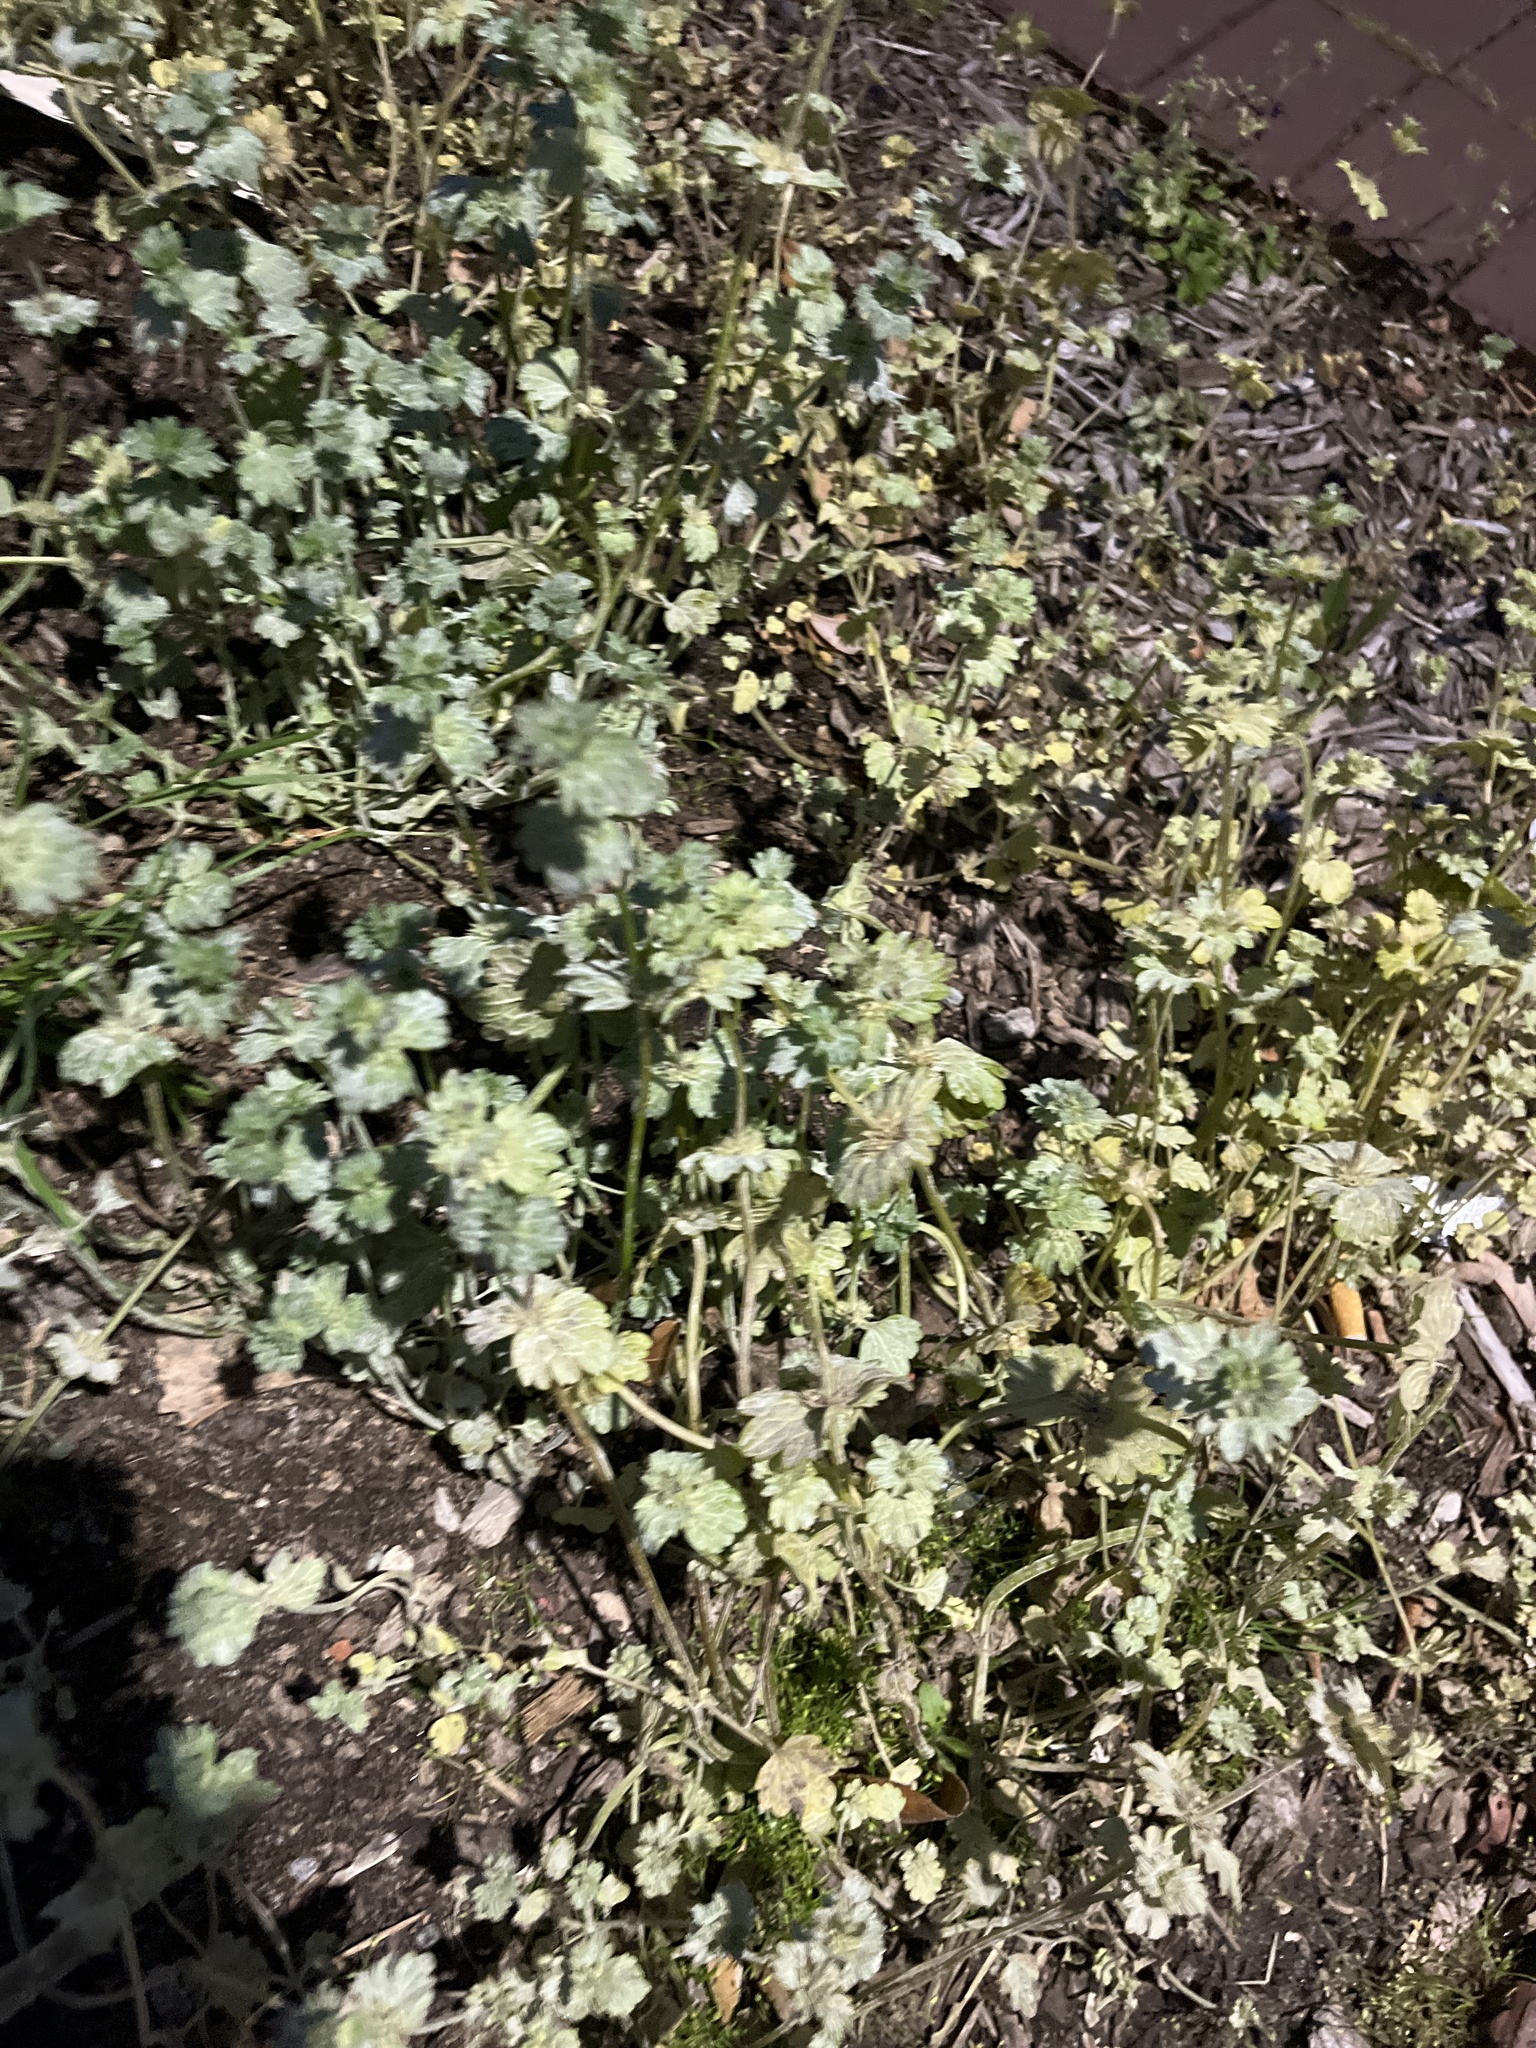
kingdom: Plantae
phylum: Tracheophyta
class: Magnoliopsida
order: Lamiales
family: Lamiaceae
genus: Lamium
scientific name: Lamium amplexicaule
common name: Henbit dead-nettle
